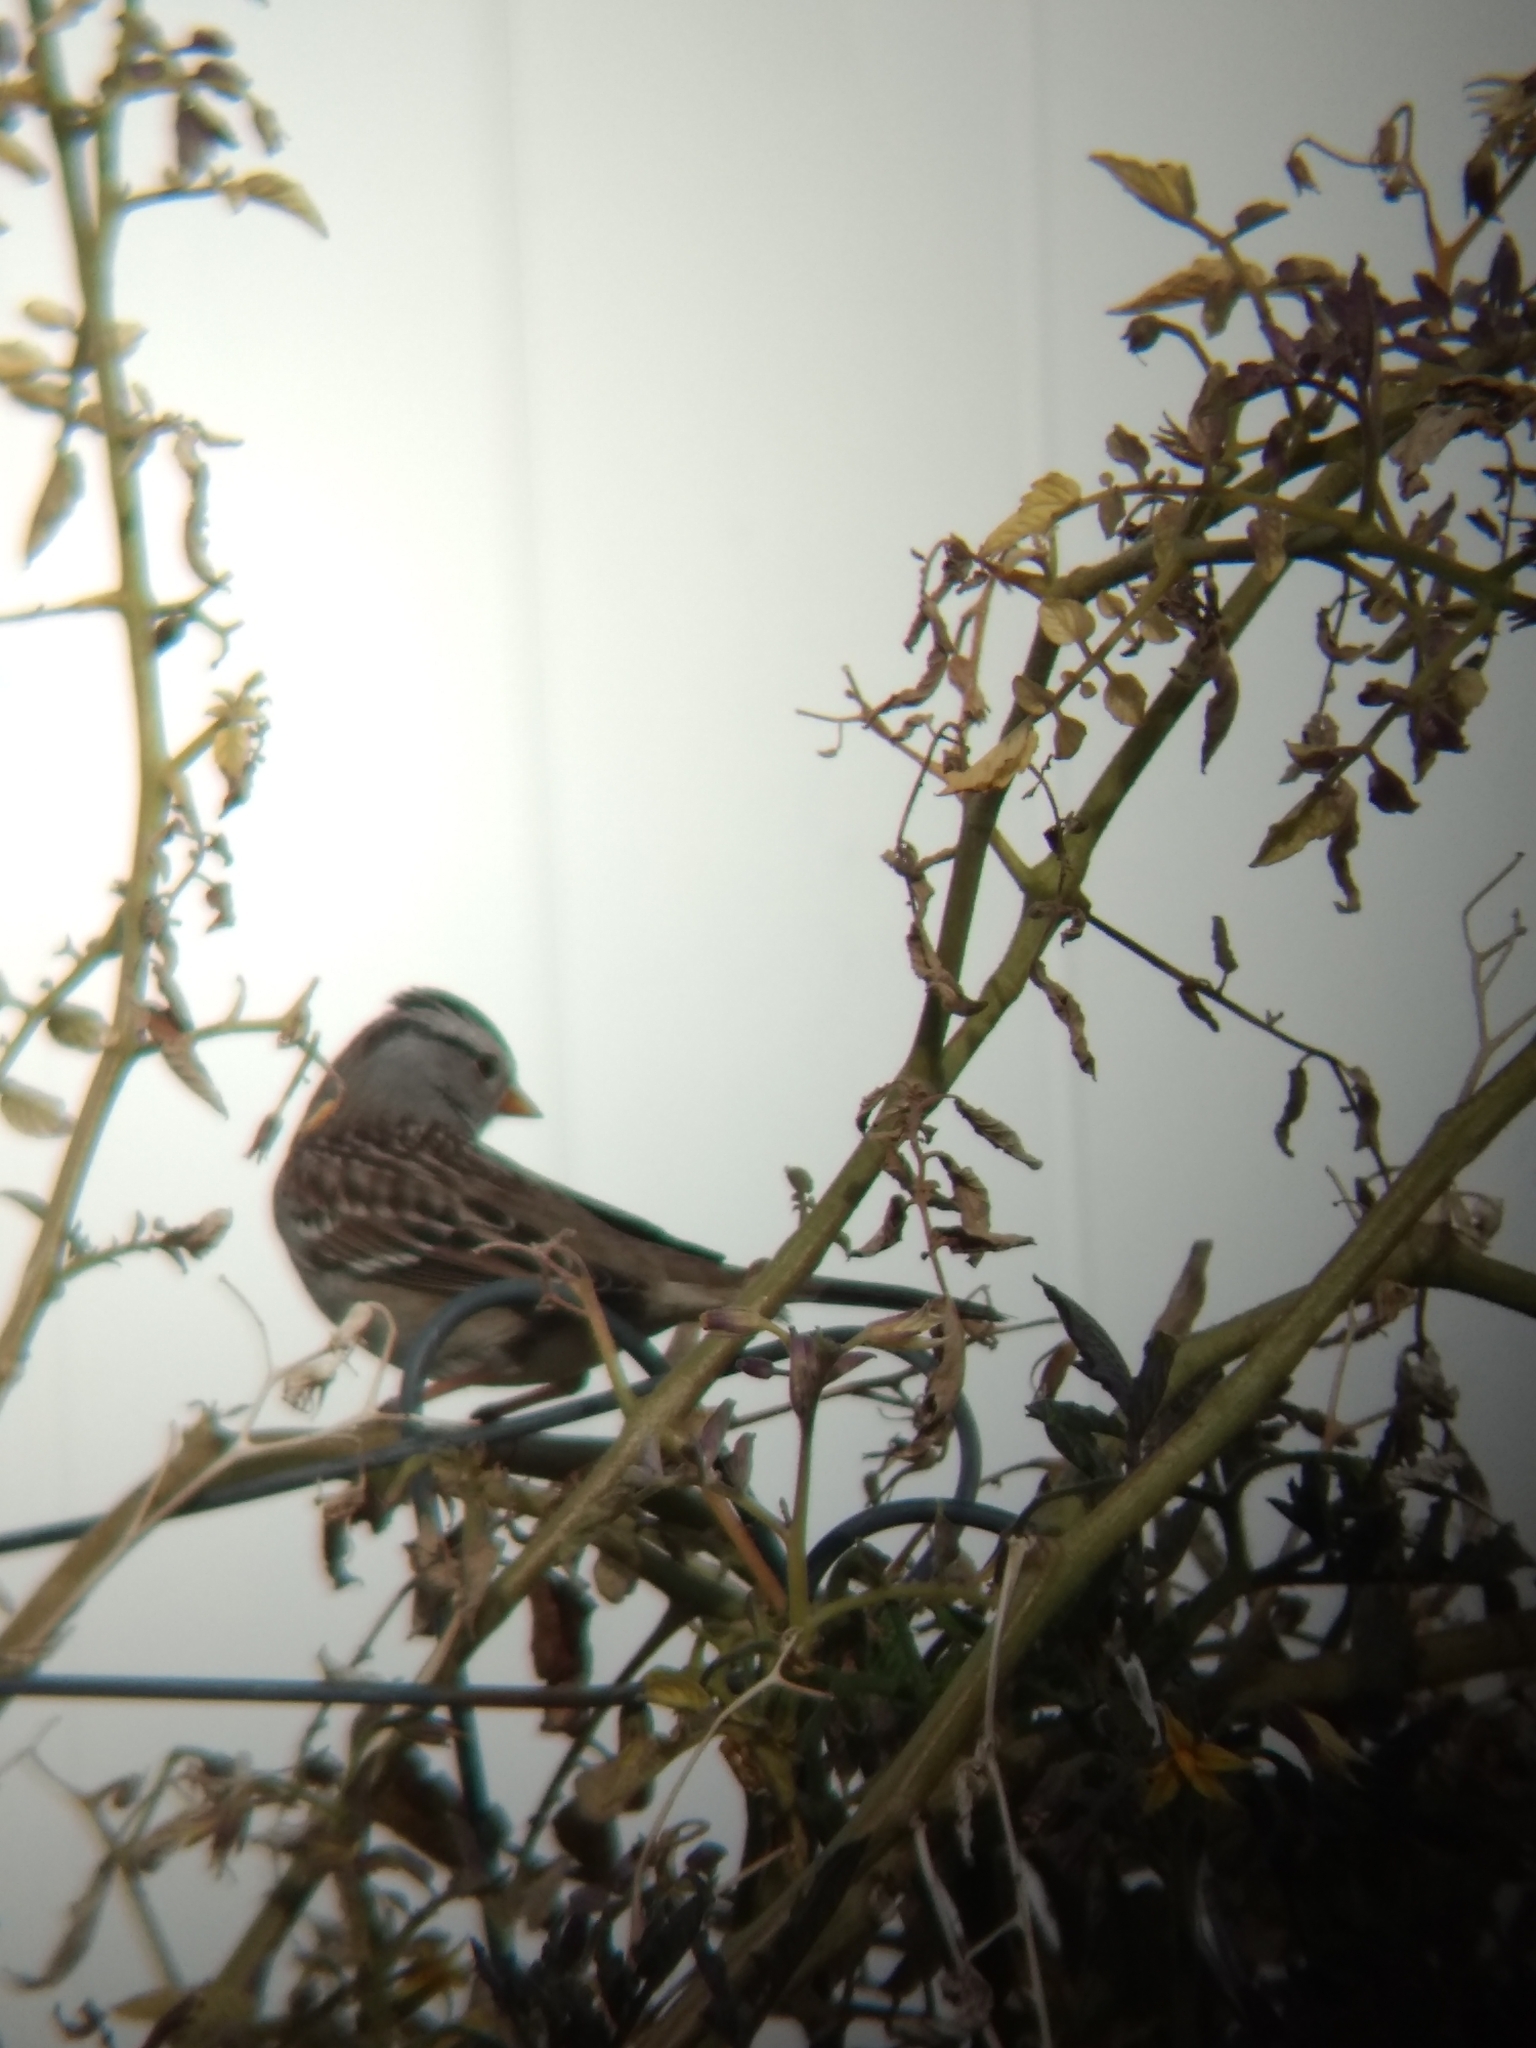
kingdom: Animalia
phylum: Chordata
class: Aves
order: Passeriformes
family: Passerellidae
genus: Zonotrichia
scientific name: Zonotrichia leucophrys
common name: White-crowned sparrow
